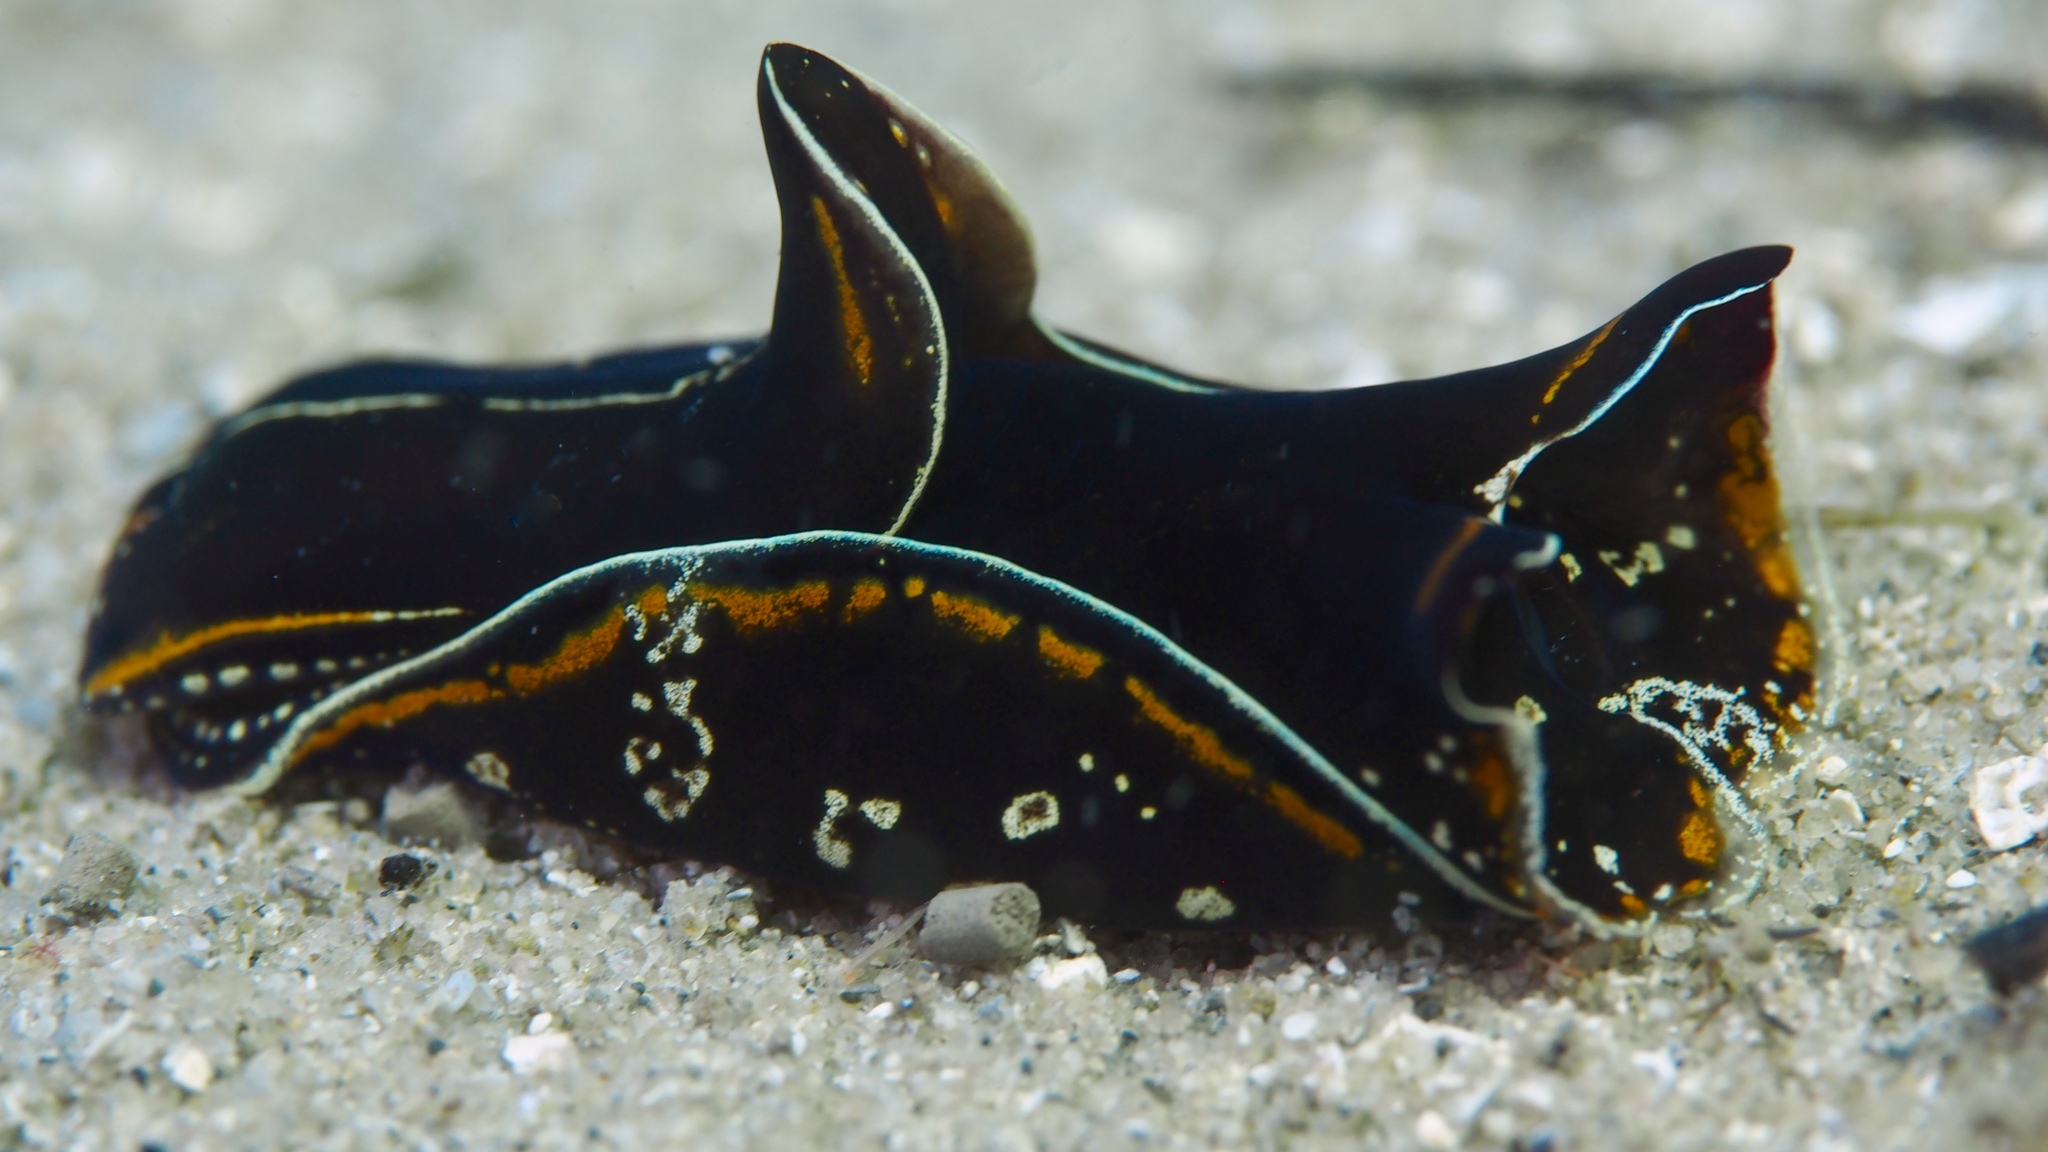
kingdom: Animalia
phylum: Mollusca
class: Gastropoda
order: Cephalaspidea
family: Aglajidae
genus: Philinopsis
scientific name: Philinopsis speciosa
